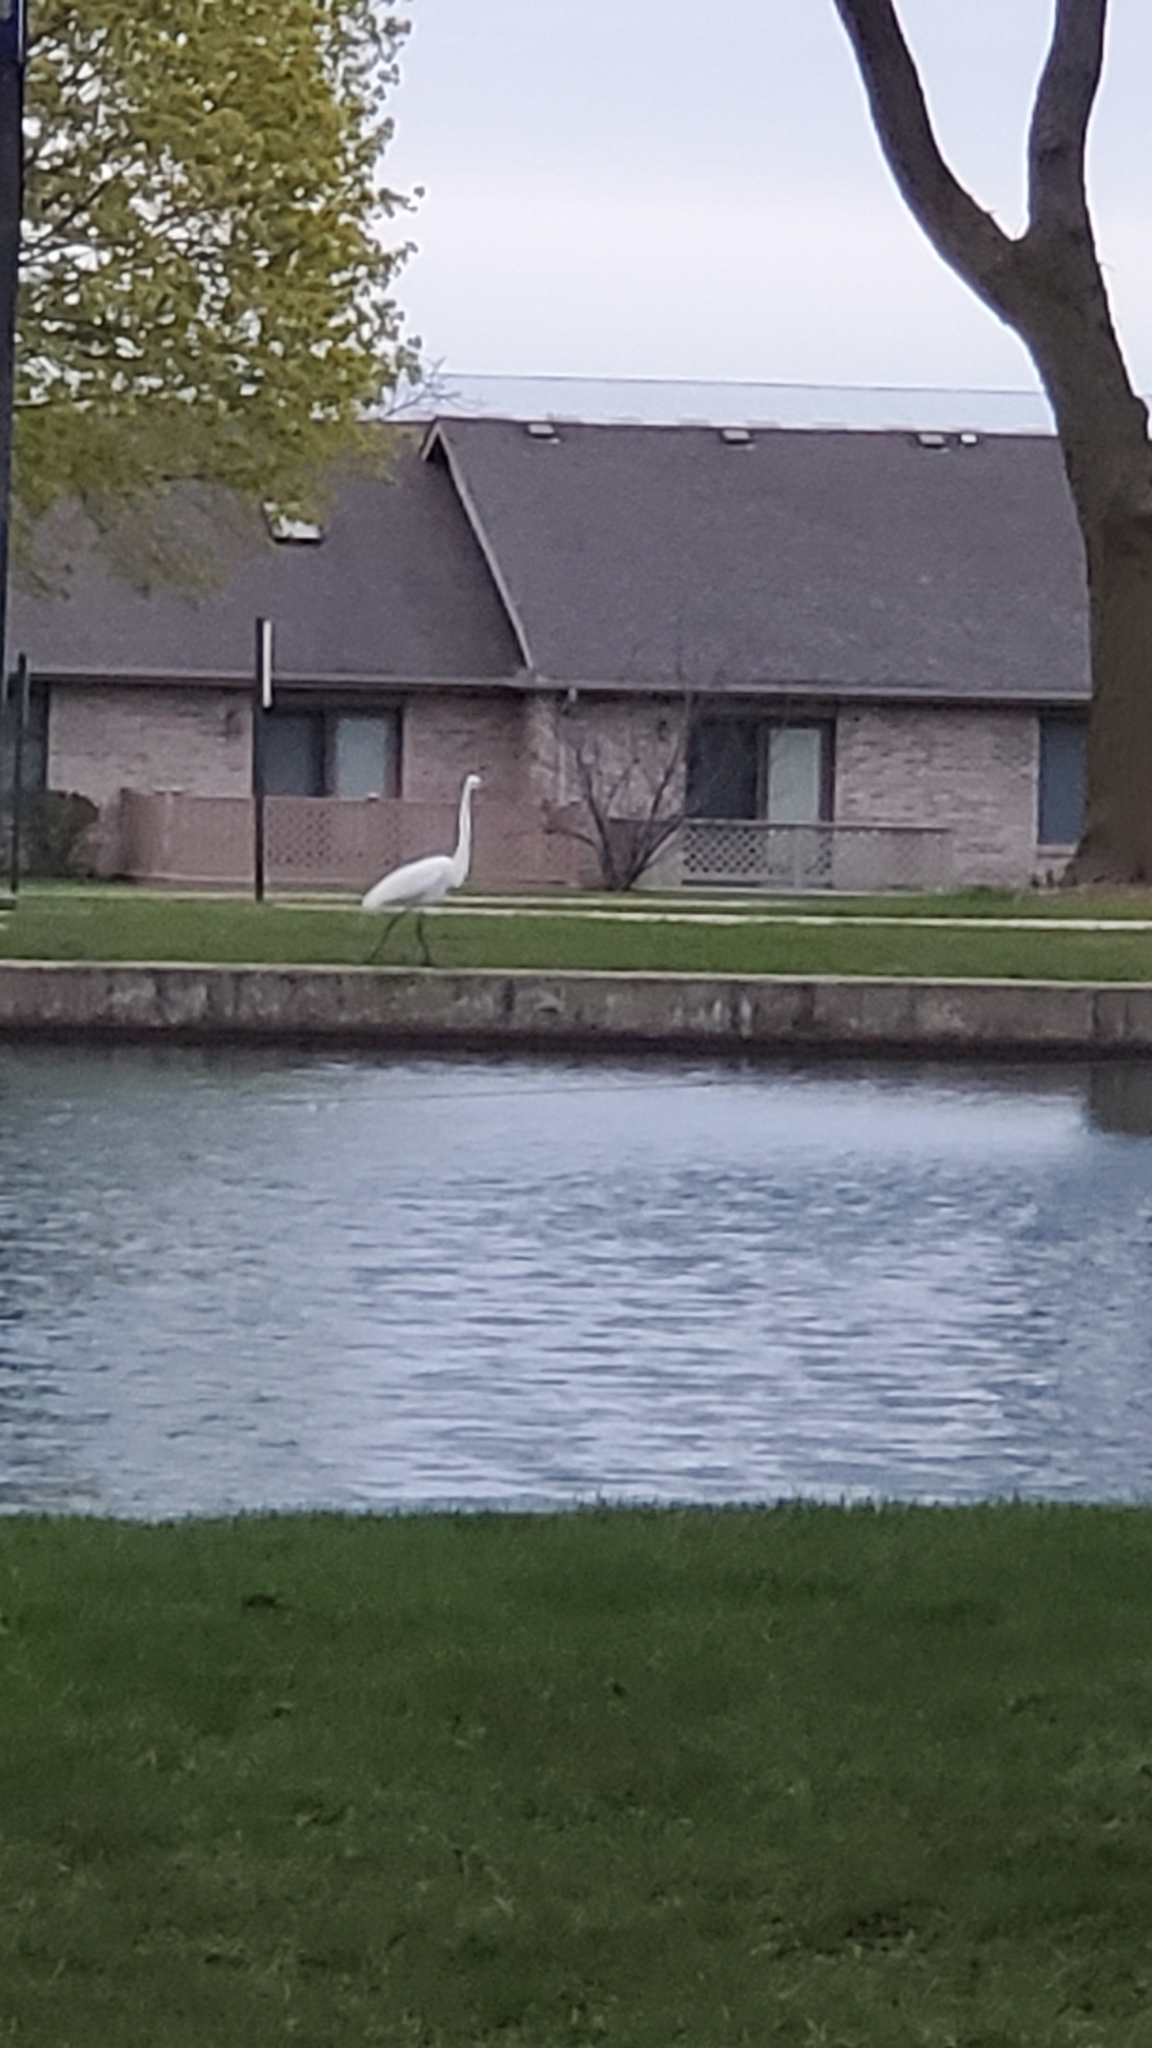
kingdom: Animalia
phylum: Chordata
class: Aves
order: Pelecaniformes
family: Ardeidae
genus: Ardea
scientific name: Ardea alba
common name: Great egret
